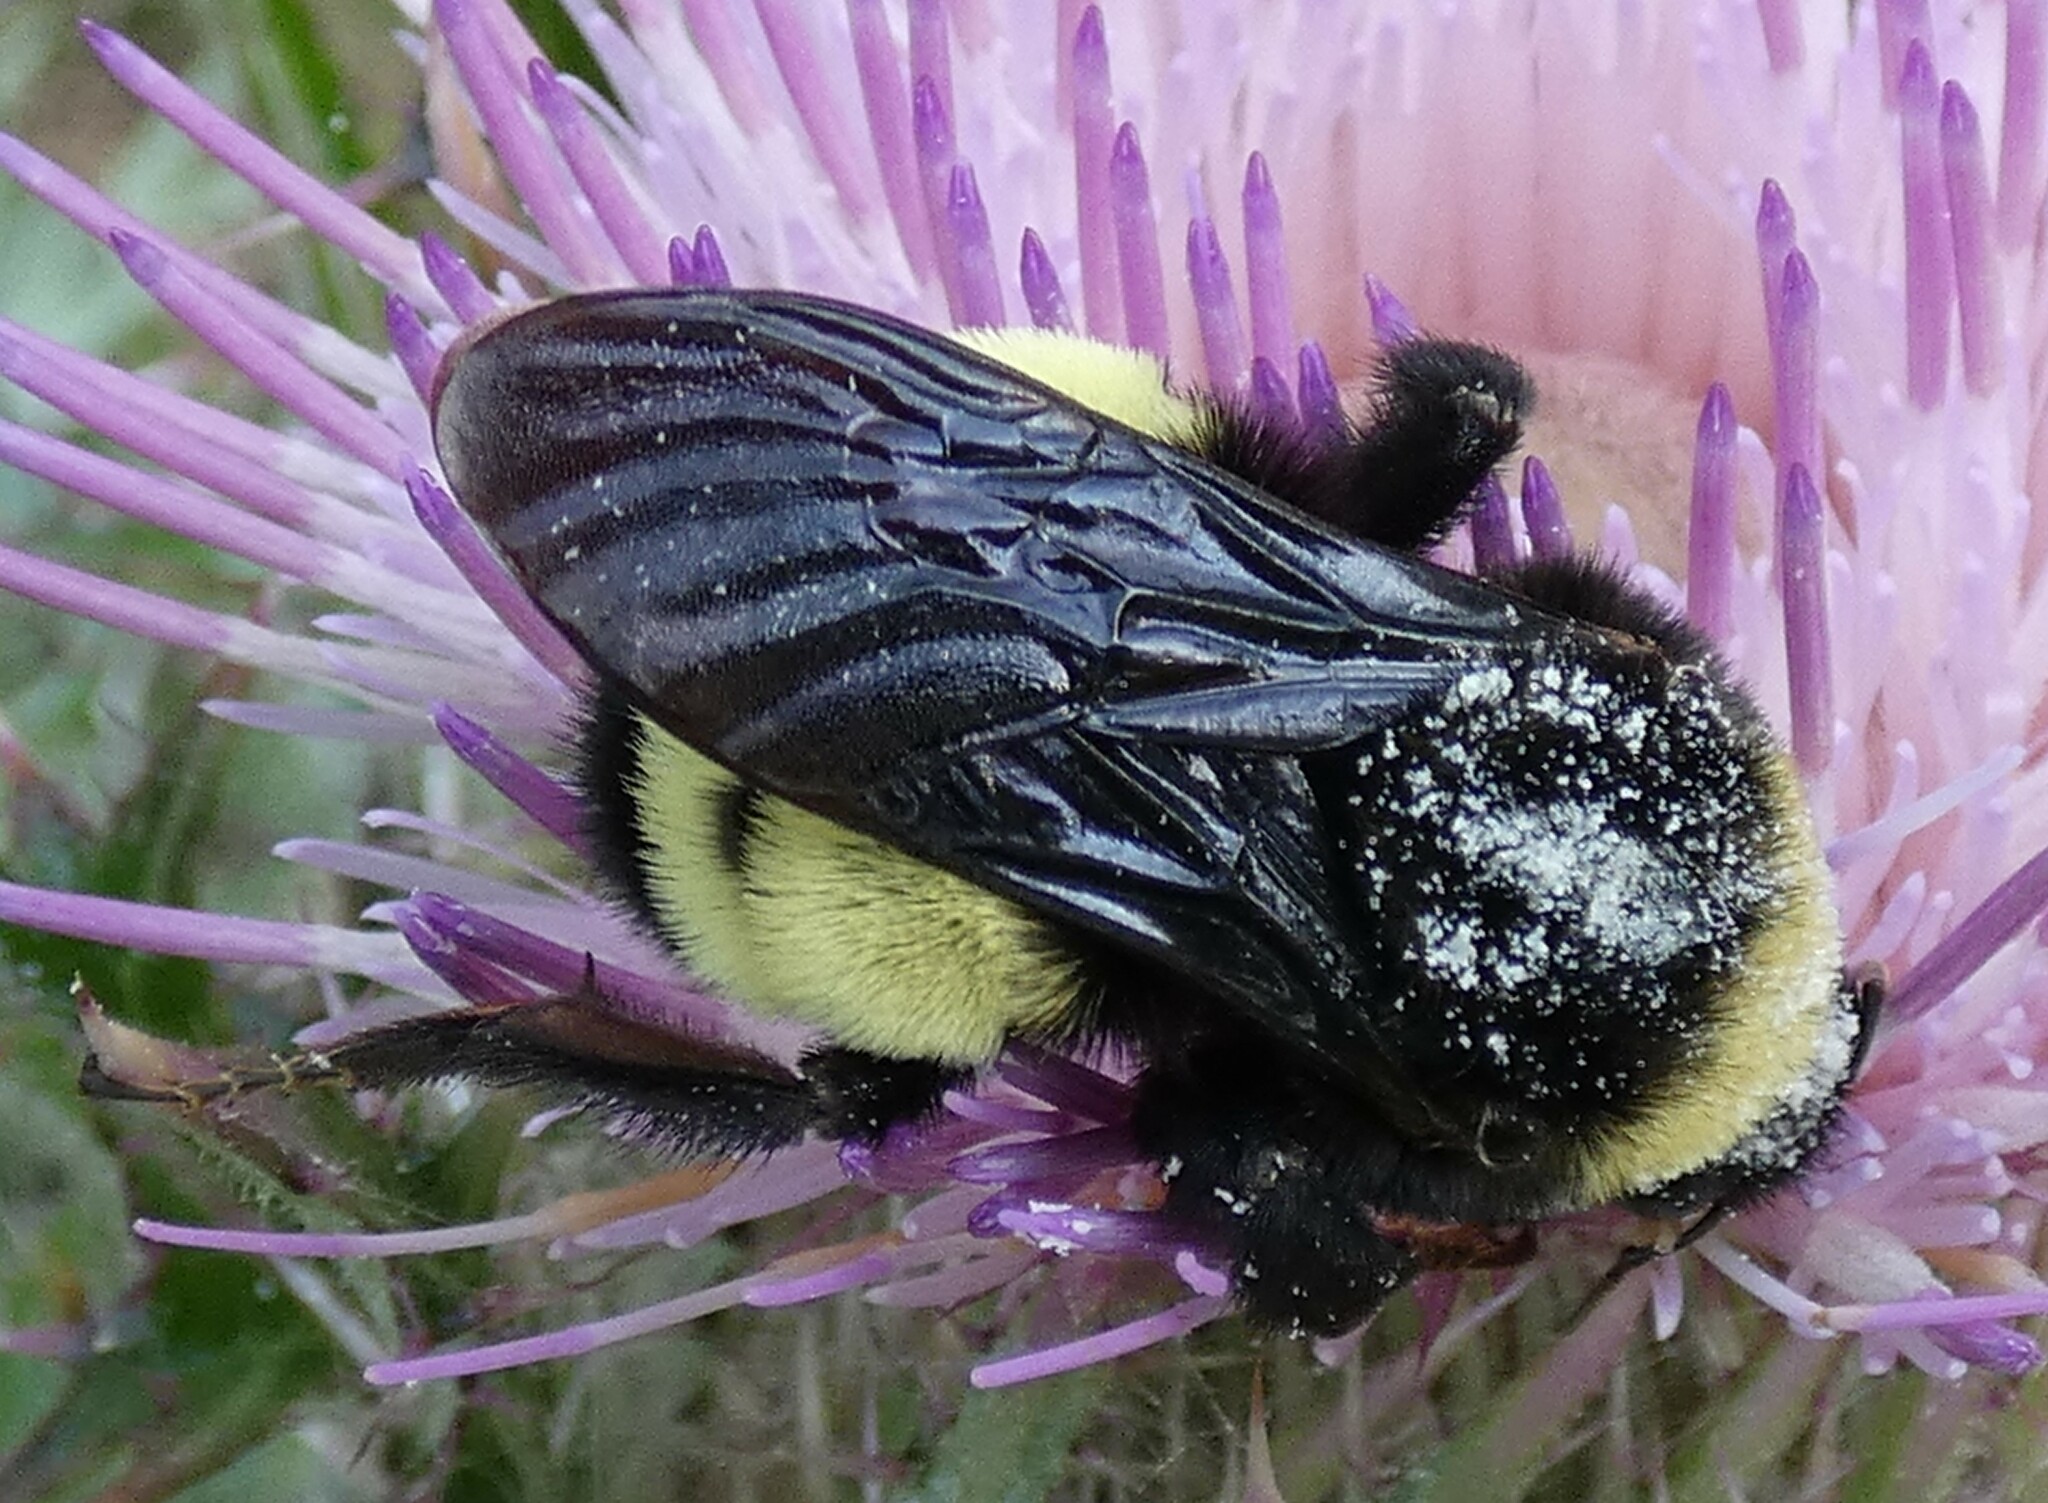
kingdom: Animalia
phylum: Arthropoda
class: Insecta
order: Hymenoptera
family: Apidae
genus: Bombus
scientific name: Bombus pensylvanicus
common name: Bumble bee
